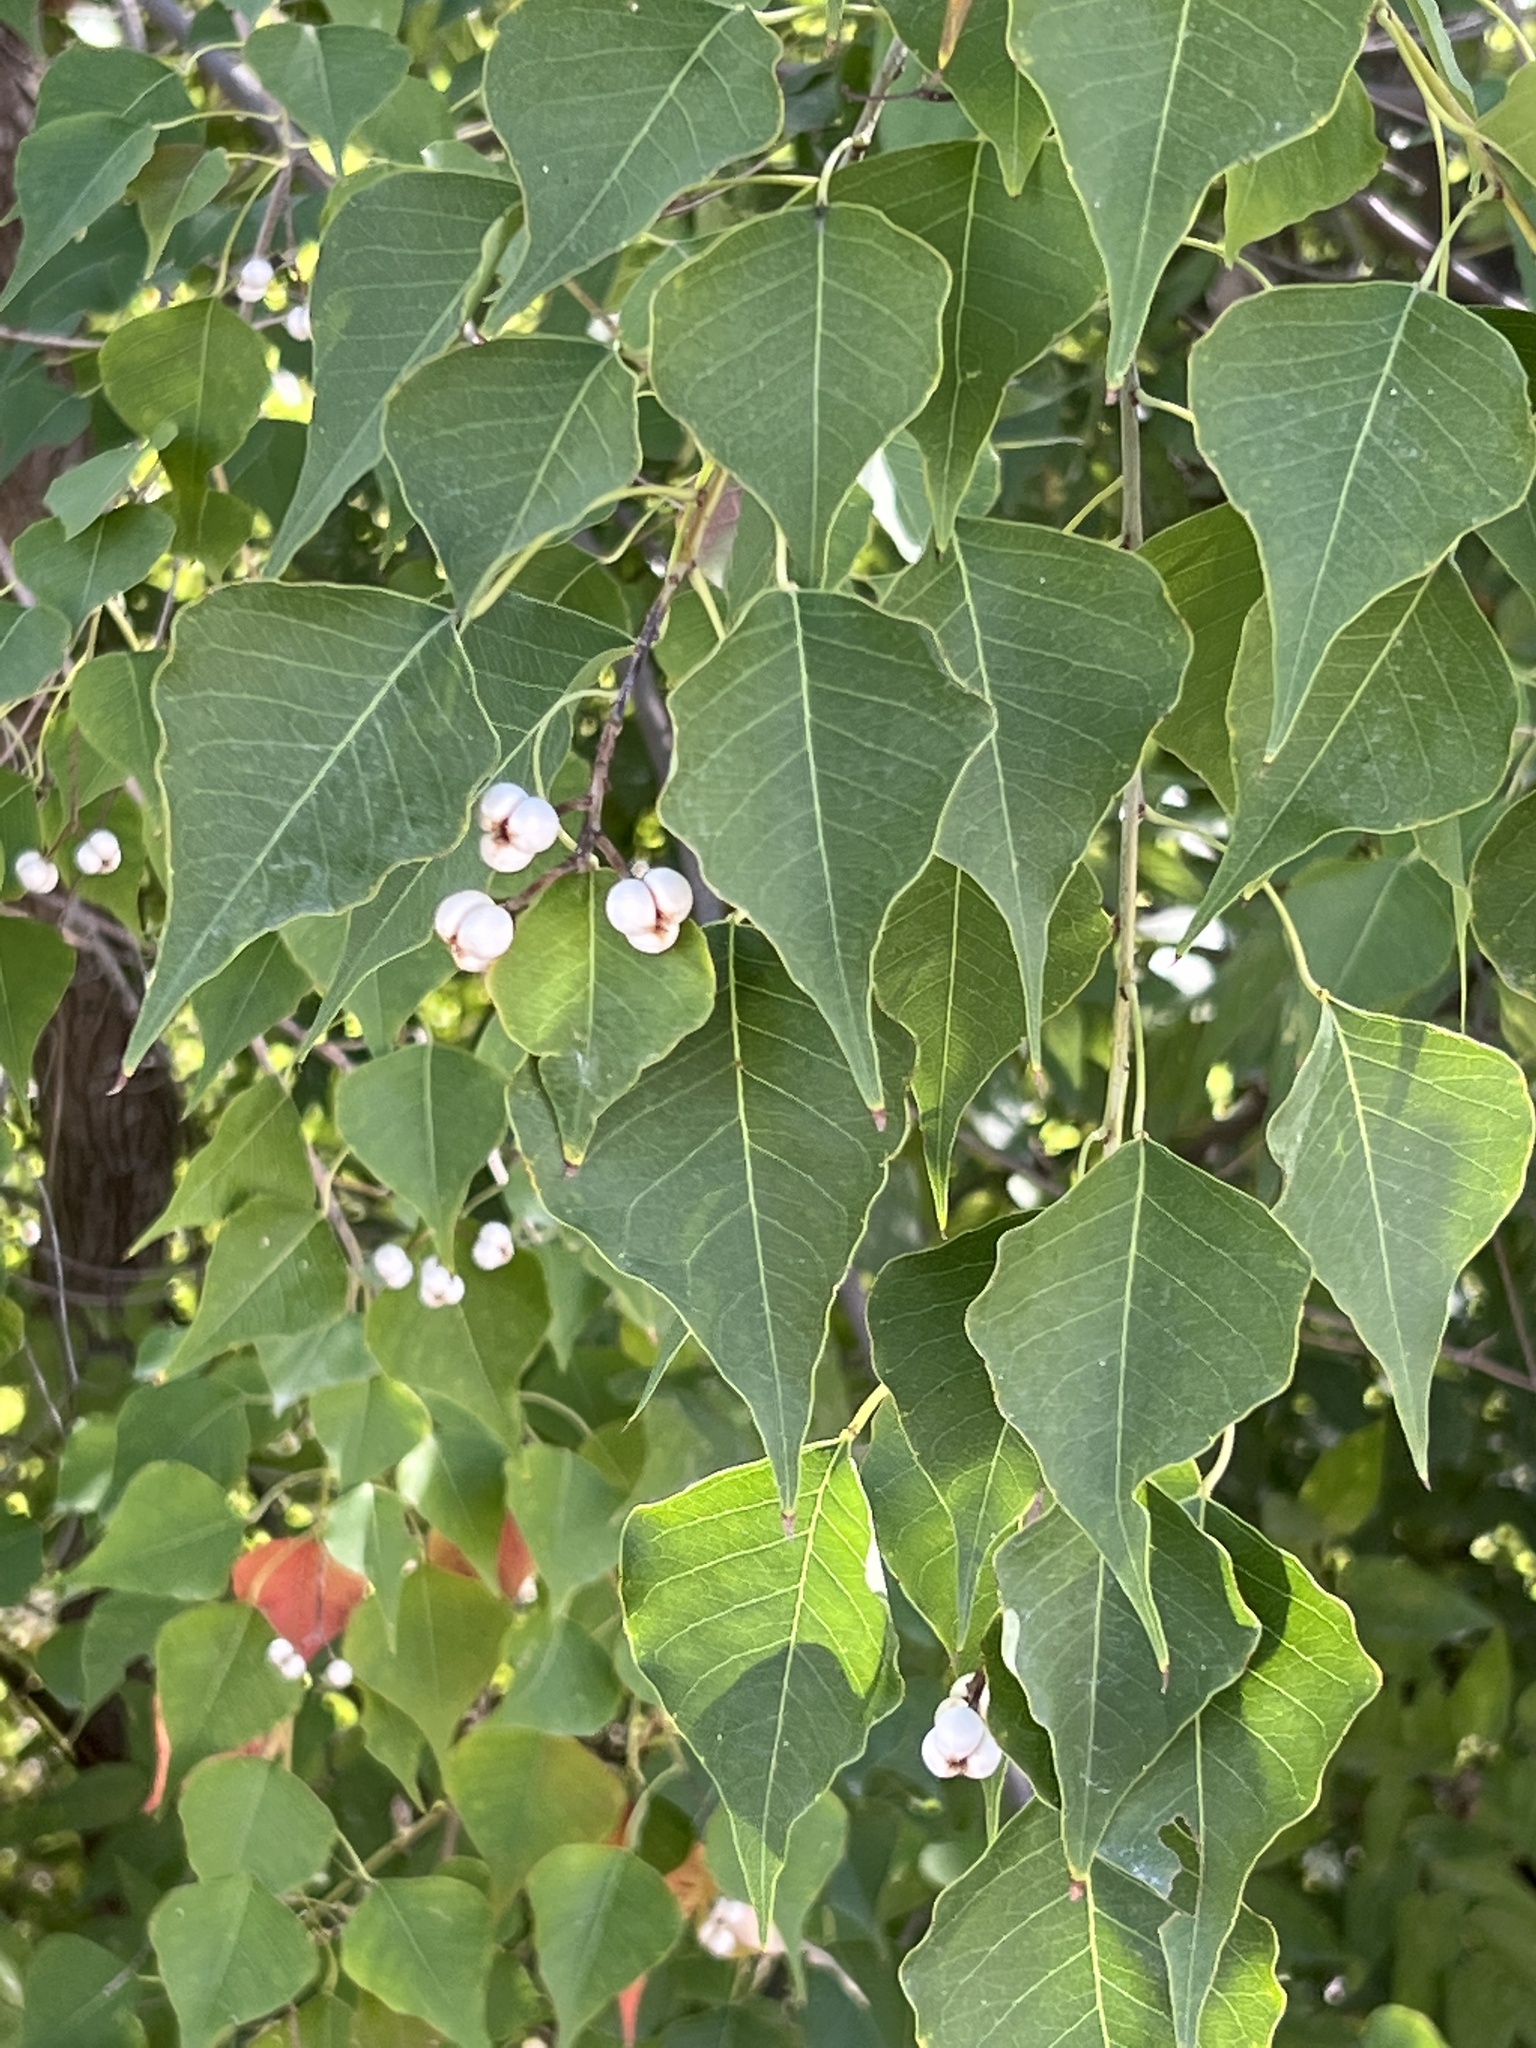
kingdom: Plantae
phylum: Tracheophyta
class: Magnoliopsida
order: Malpighiales
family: Euphorbiaceae
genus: Triadica
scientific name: Triadica sebifera
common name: Chinese tallow
